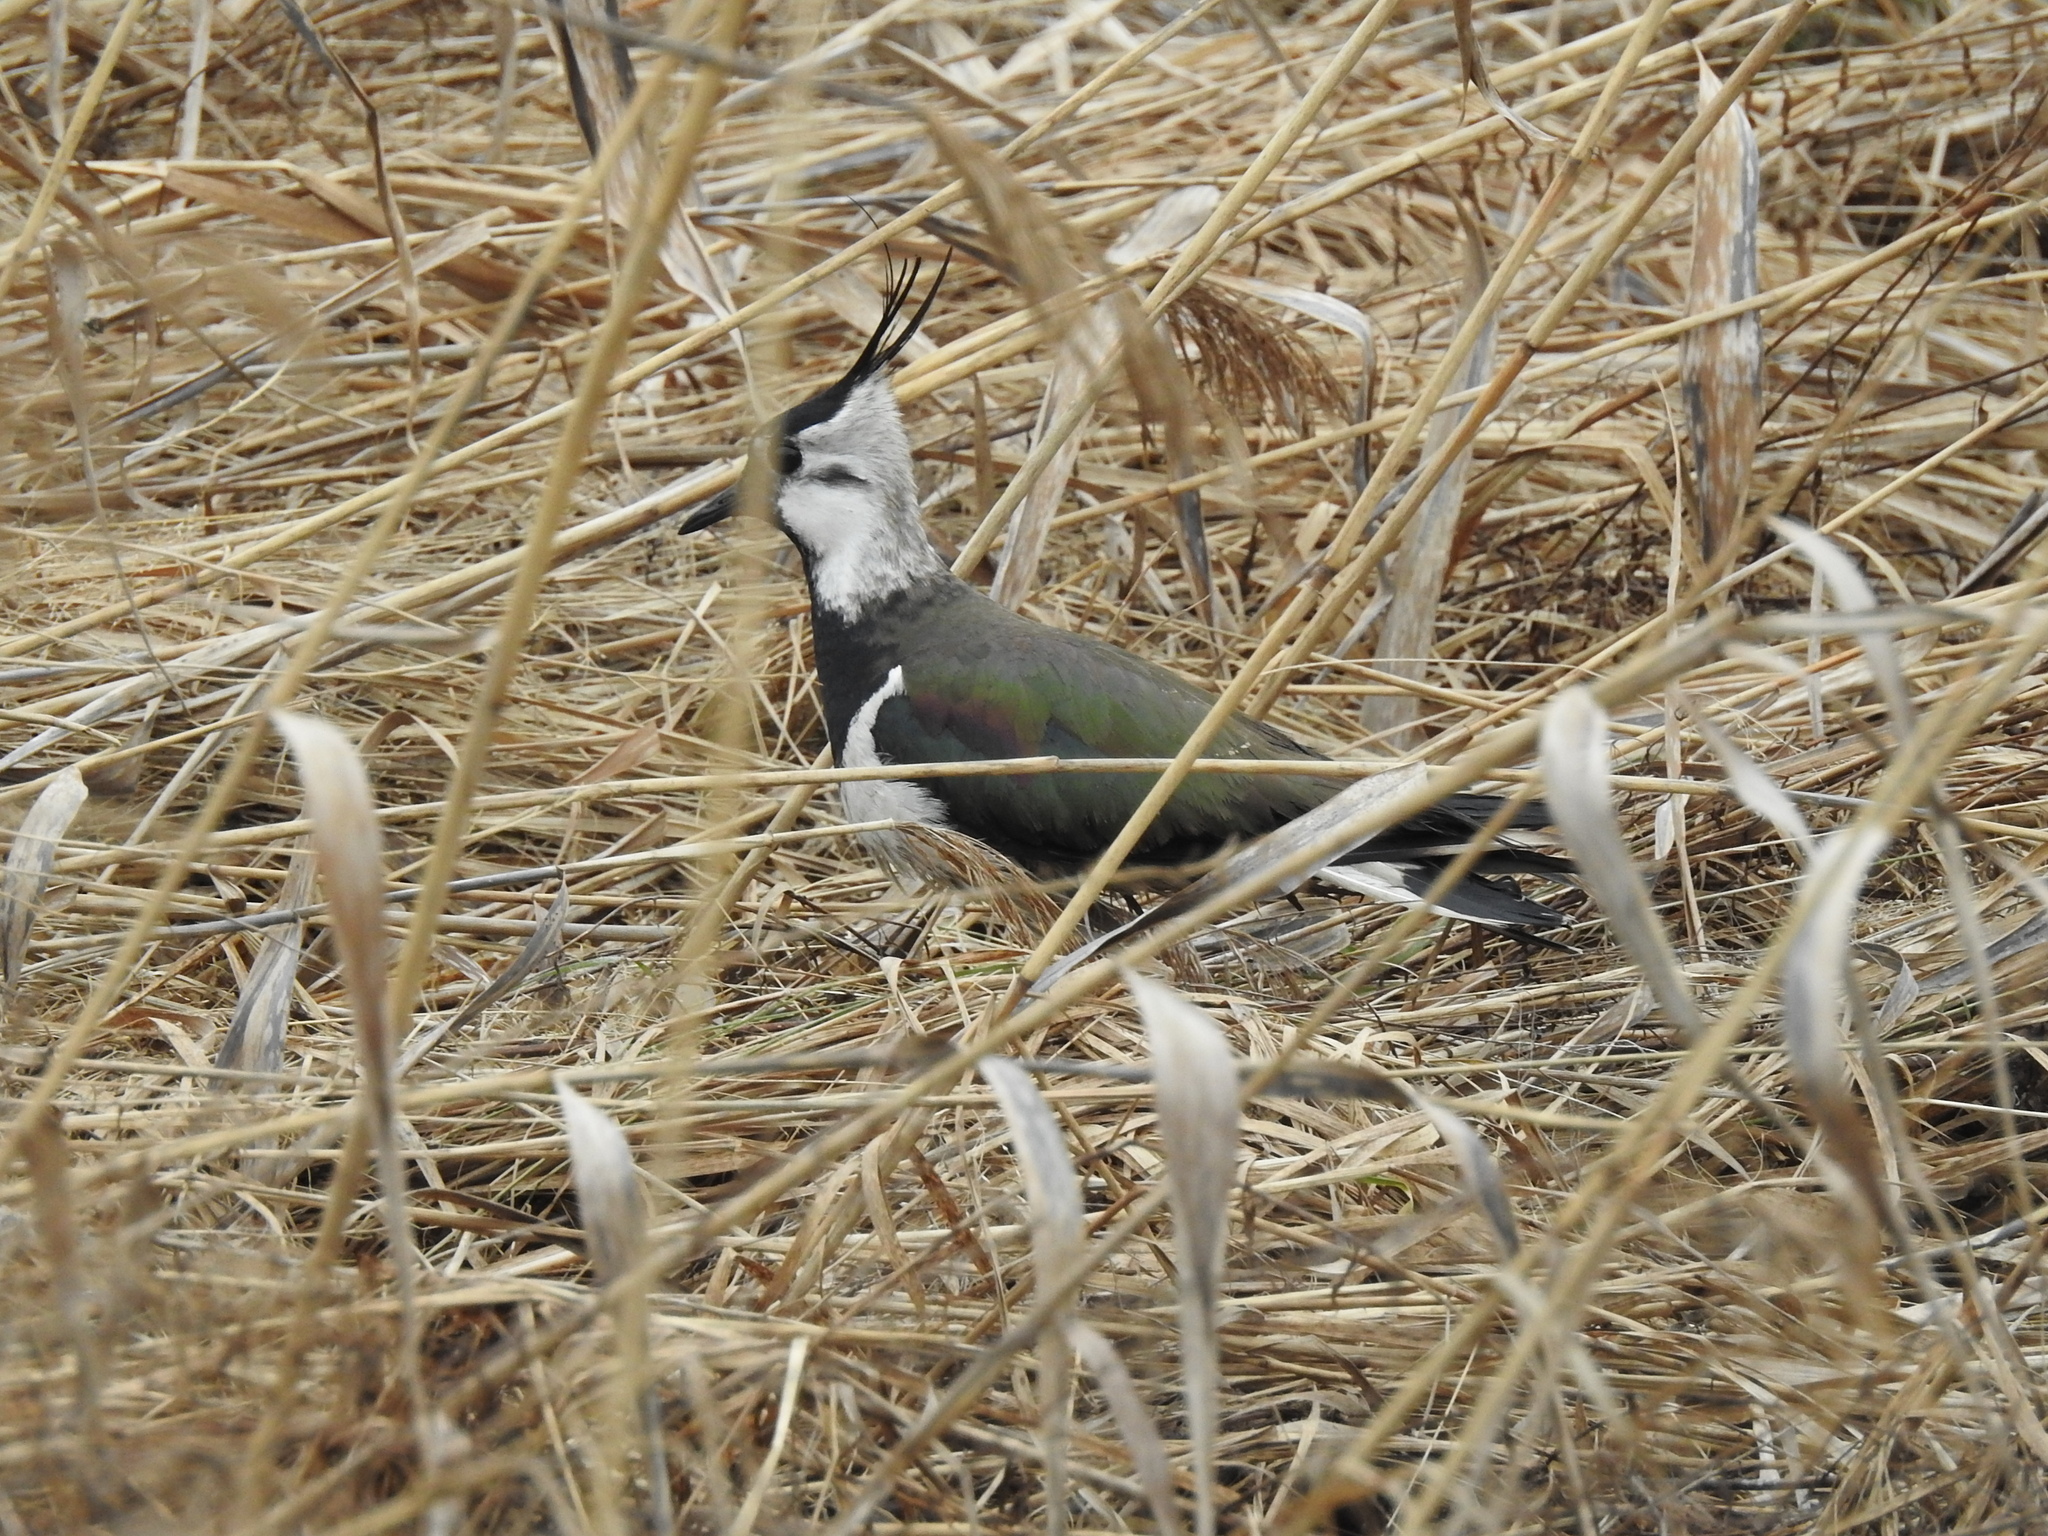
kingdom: Animalia
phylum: Chordata
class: Aves
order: Charadriiformes
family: Charadriidae
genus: Vanellus
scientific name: Vanellus vanellus
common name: Northern lapwing
